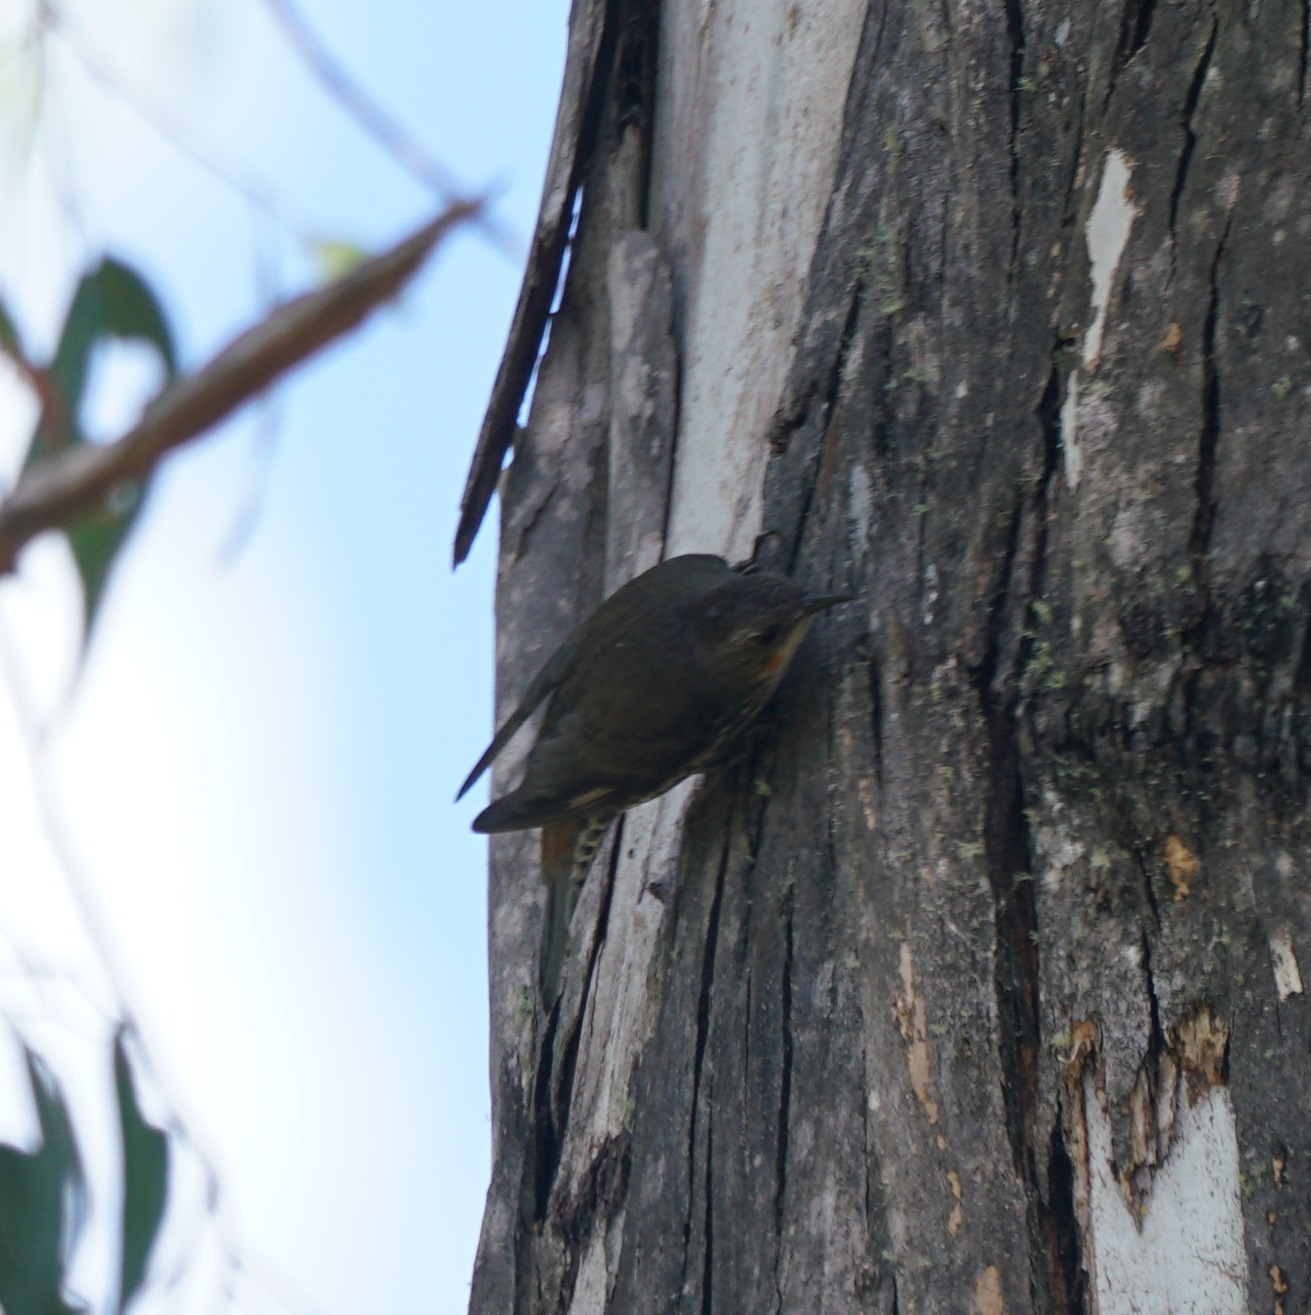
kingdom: Animalia
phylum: Chordata
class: Aves
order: Passeriformes
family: Climacteridae
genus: Cormobates
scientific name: Cormobates leucophaea
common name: White-throated treecreeper
